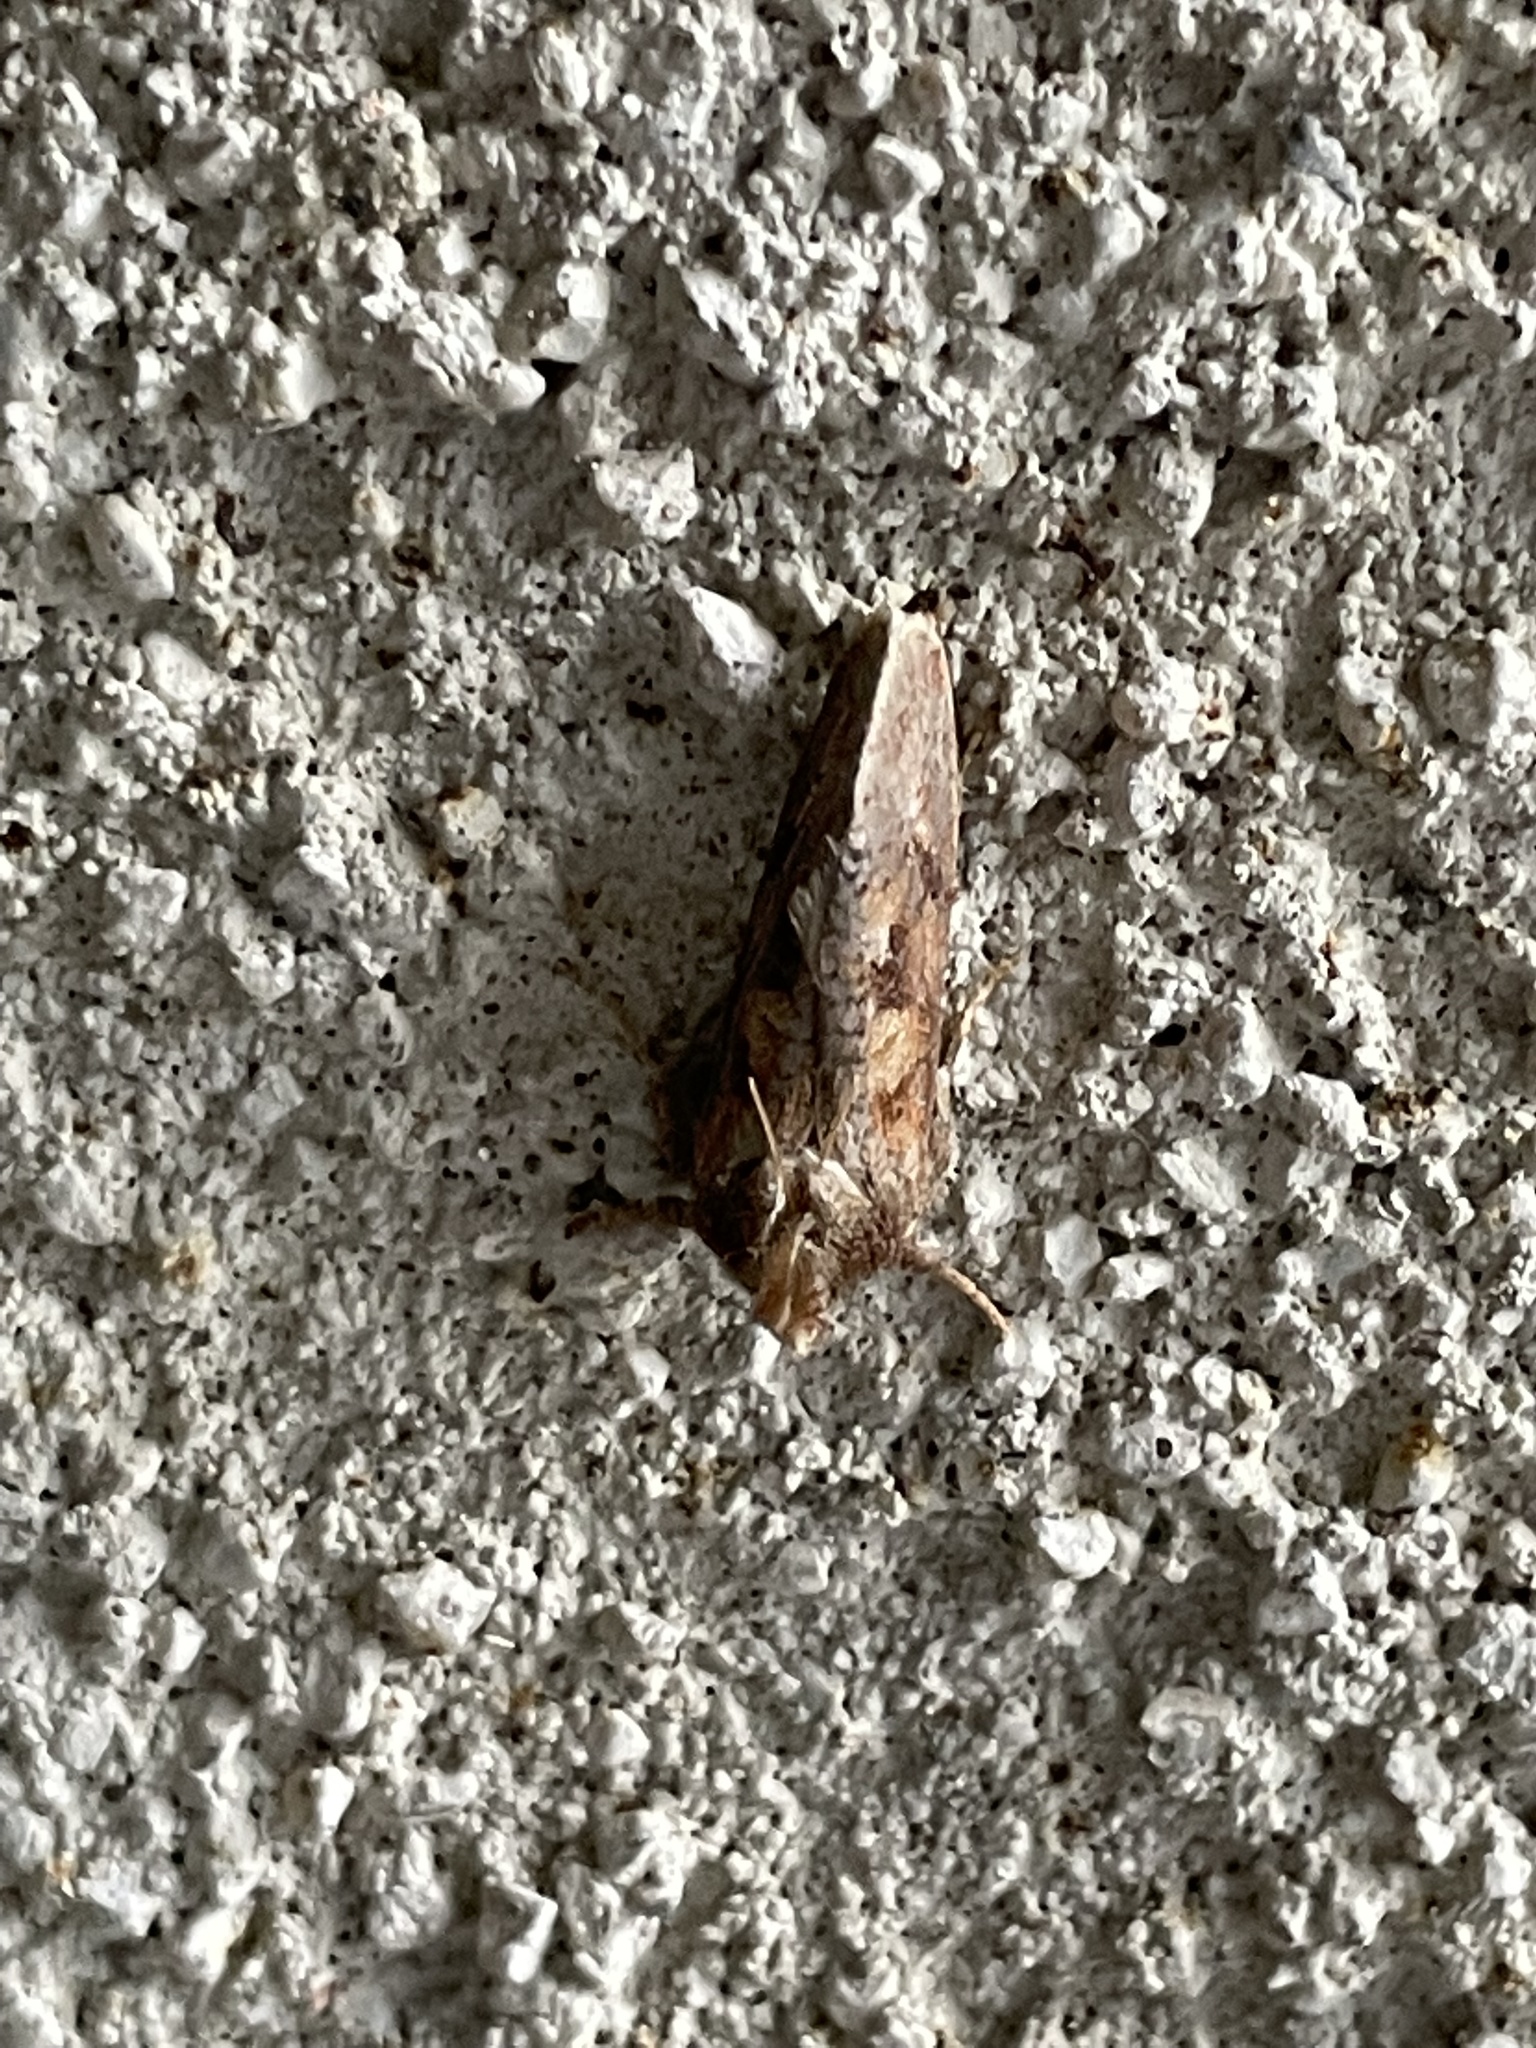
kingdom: Animalia
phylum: Arthropoda
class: Insecta
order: Lepidoptera
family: Tineidae
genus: Acrolophus
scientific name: Acrolophus plumifrontella
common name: Eastern grass tubeworm moth
